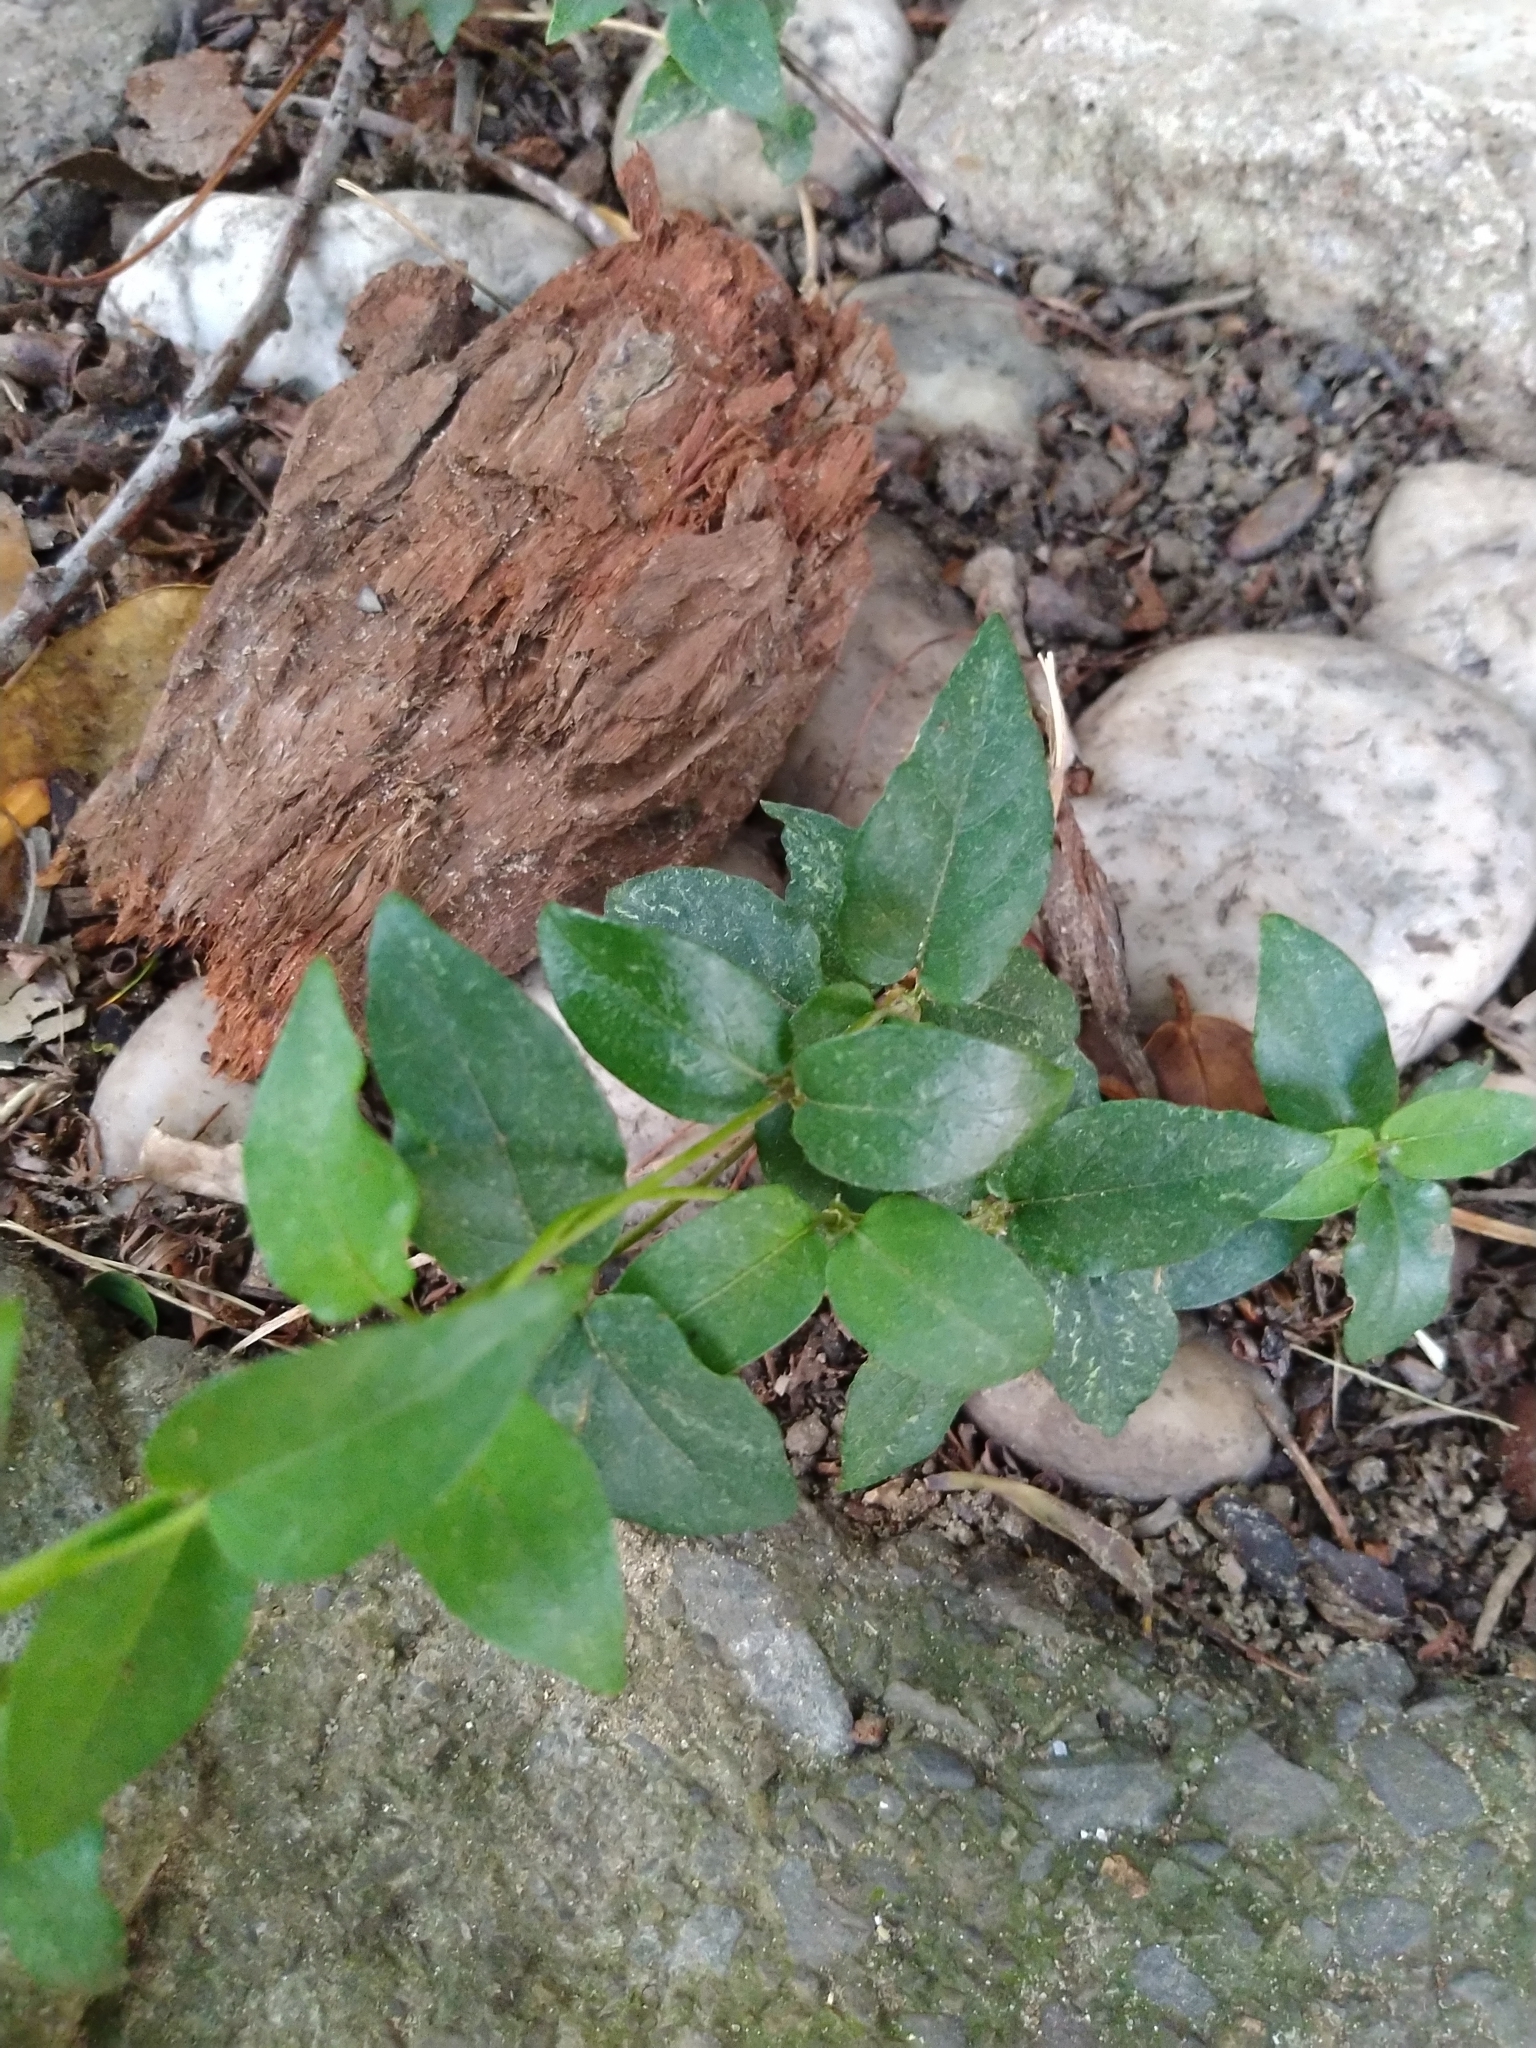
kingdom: Plantae
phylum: Tracheophyta
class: Magnoliopsida
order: Gentianales
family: Rubiaceae
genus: Paederia
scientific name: Paederia foetida
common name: Stinkvine
